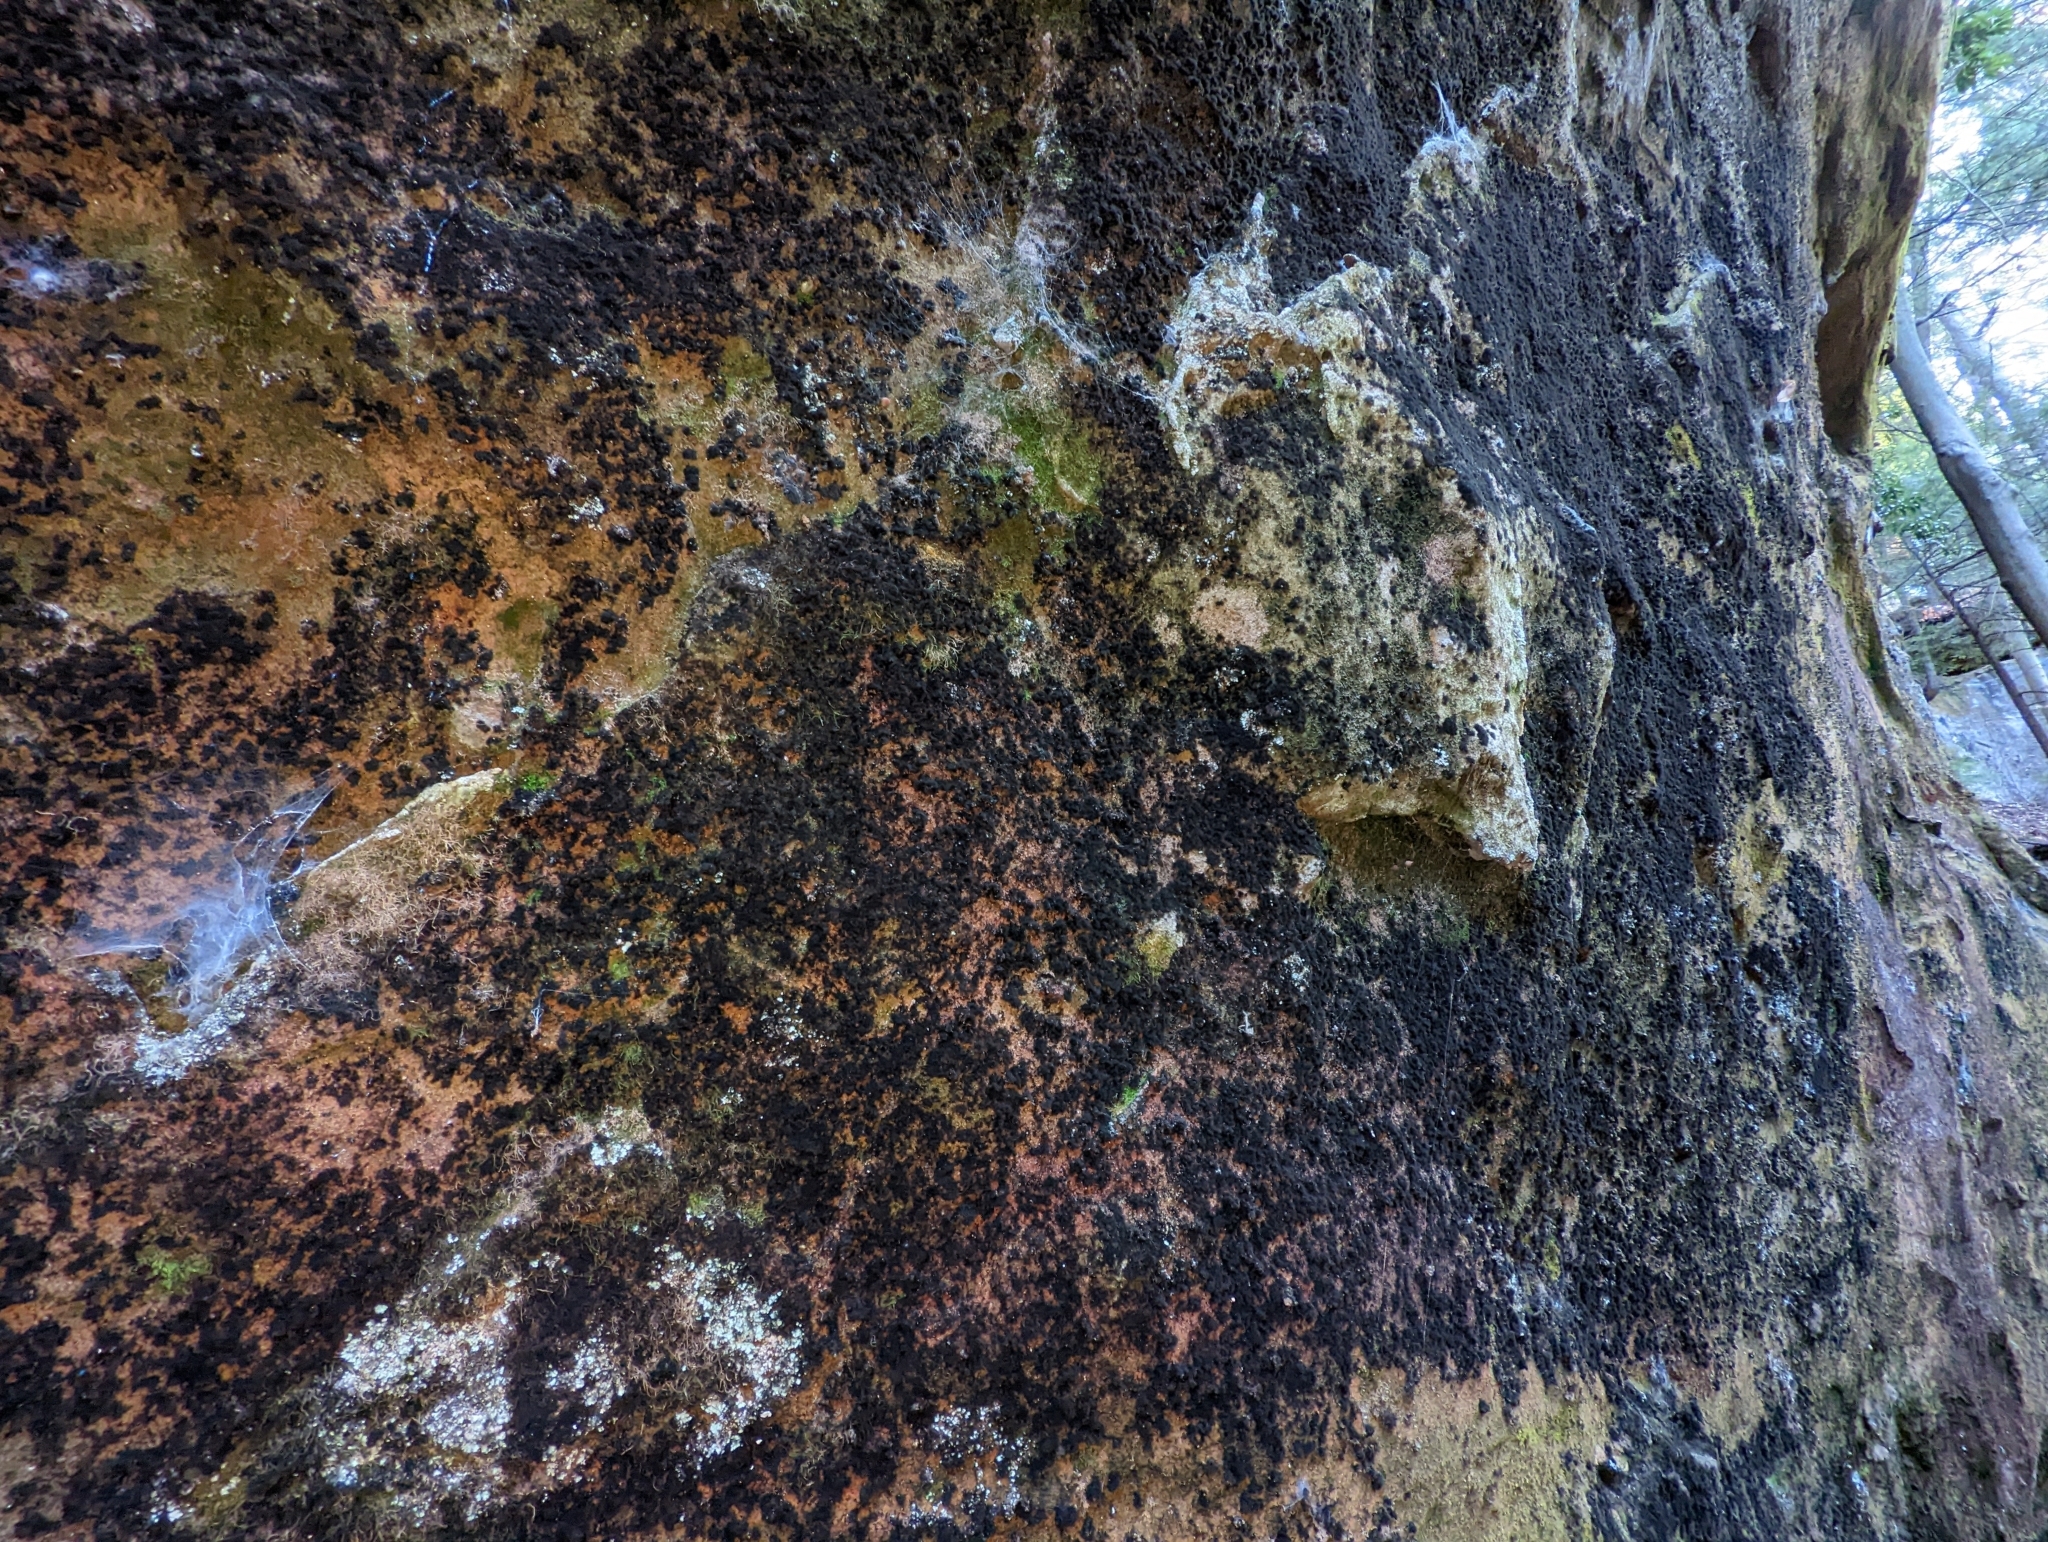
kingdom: Fungi
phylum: Ascomycota
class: Eurotiomycetes
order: Chaetothyriales
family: Herpotrichiellaceae
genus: Rhacodiopsis
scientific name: Rhacodiopsis rupestris
